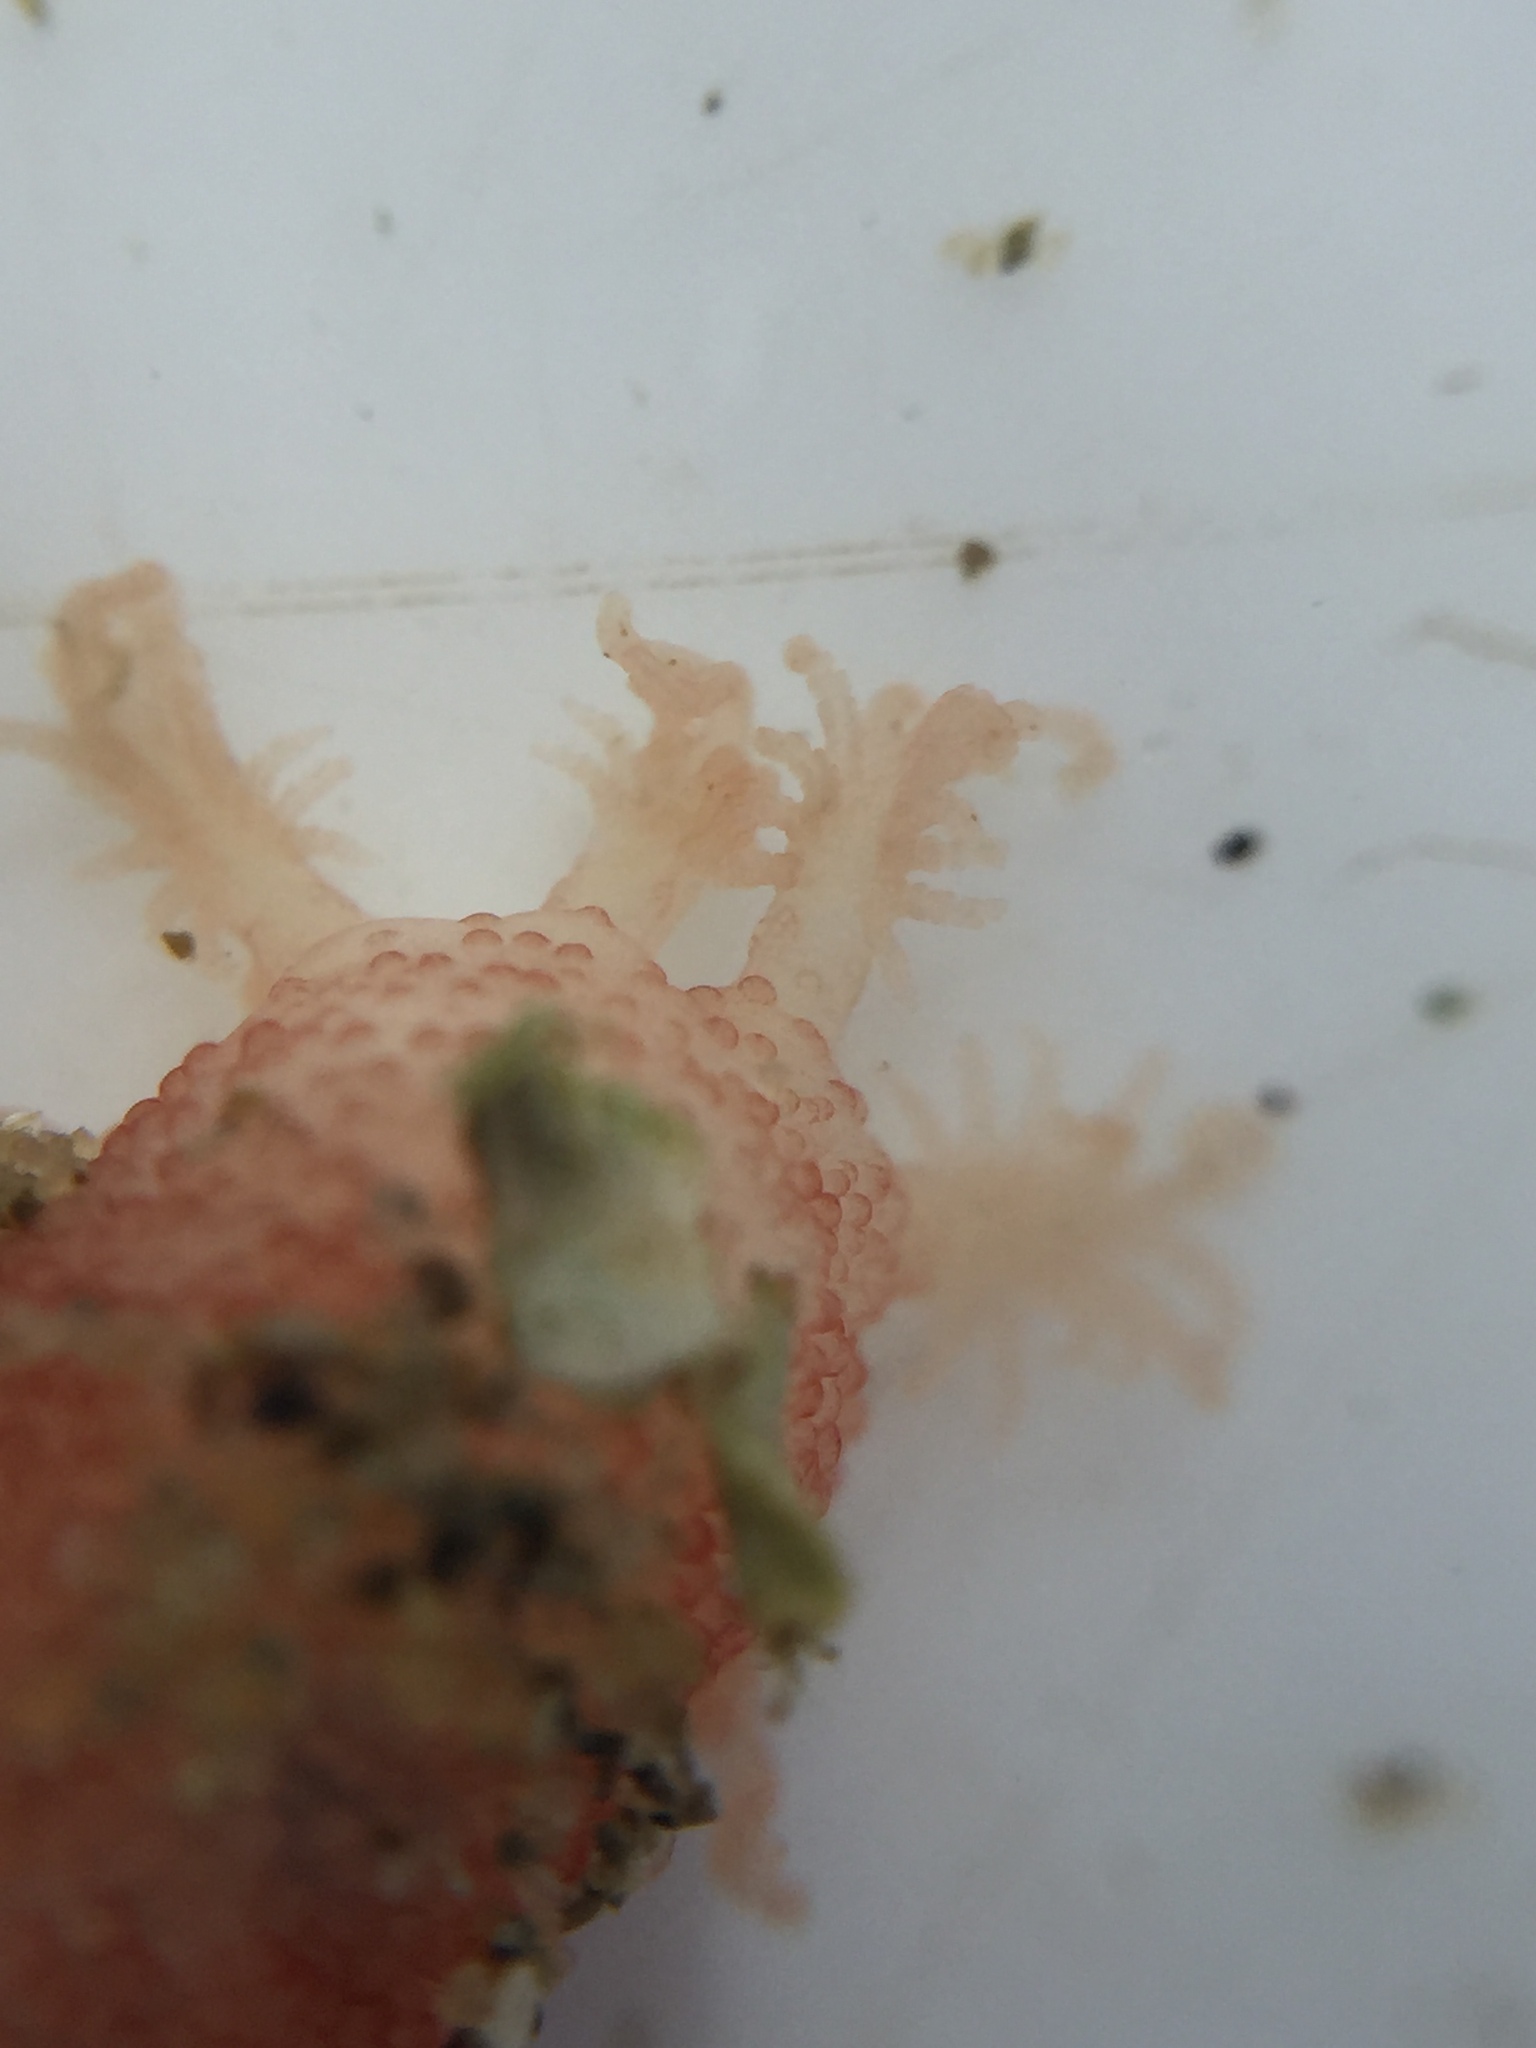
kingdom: Animalia
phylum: Echinodermata
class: Holothuroidea
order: Apodida
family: Chiridotidae
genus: Taeniogyrus
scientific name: Taeniogyrus dunedinensis
